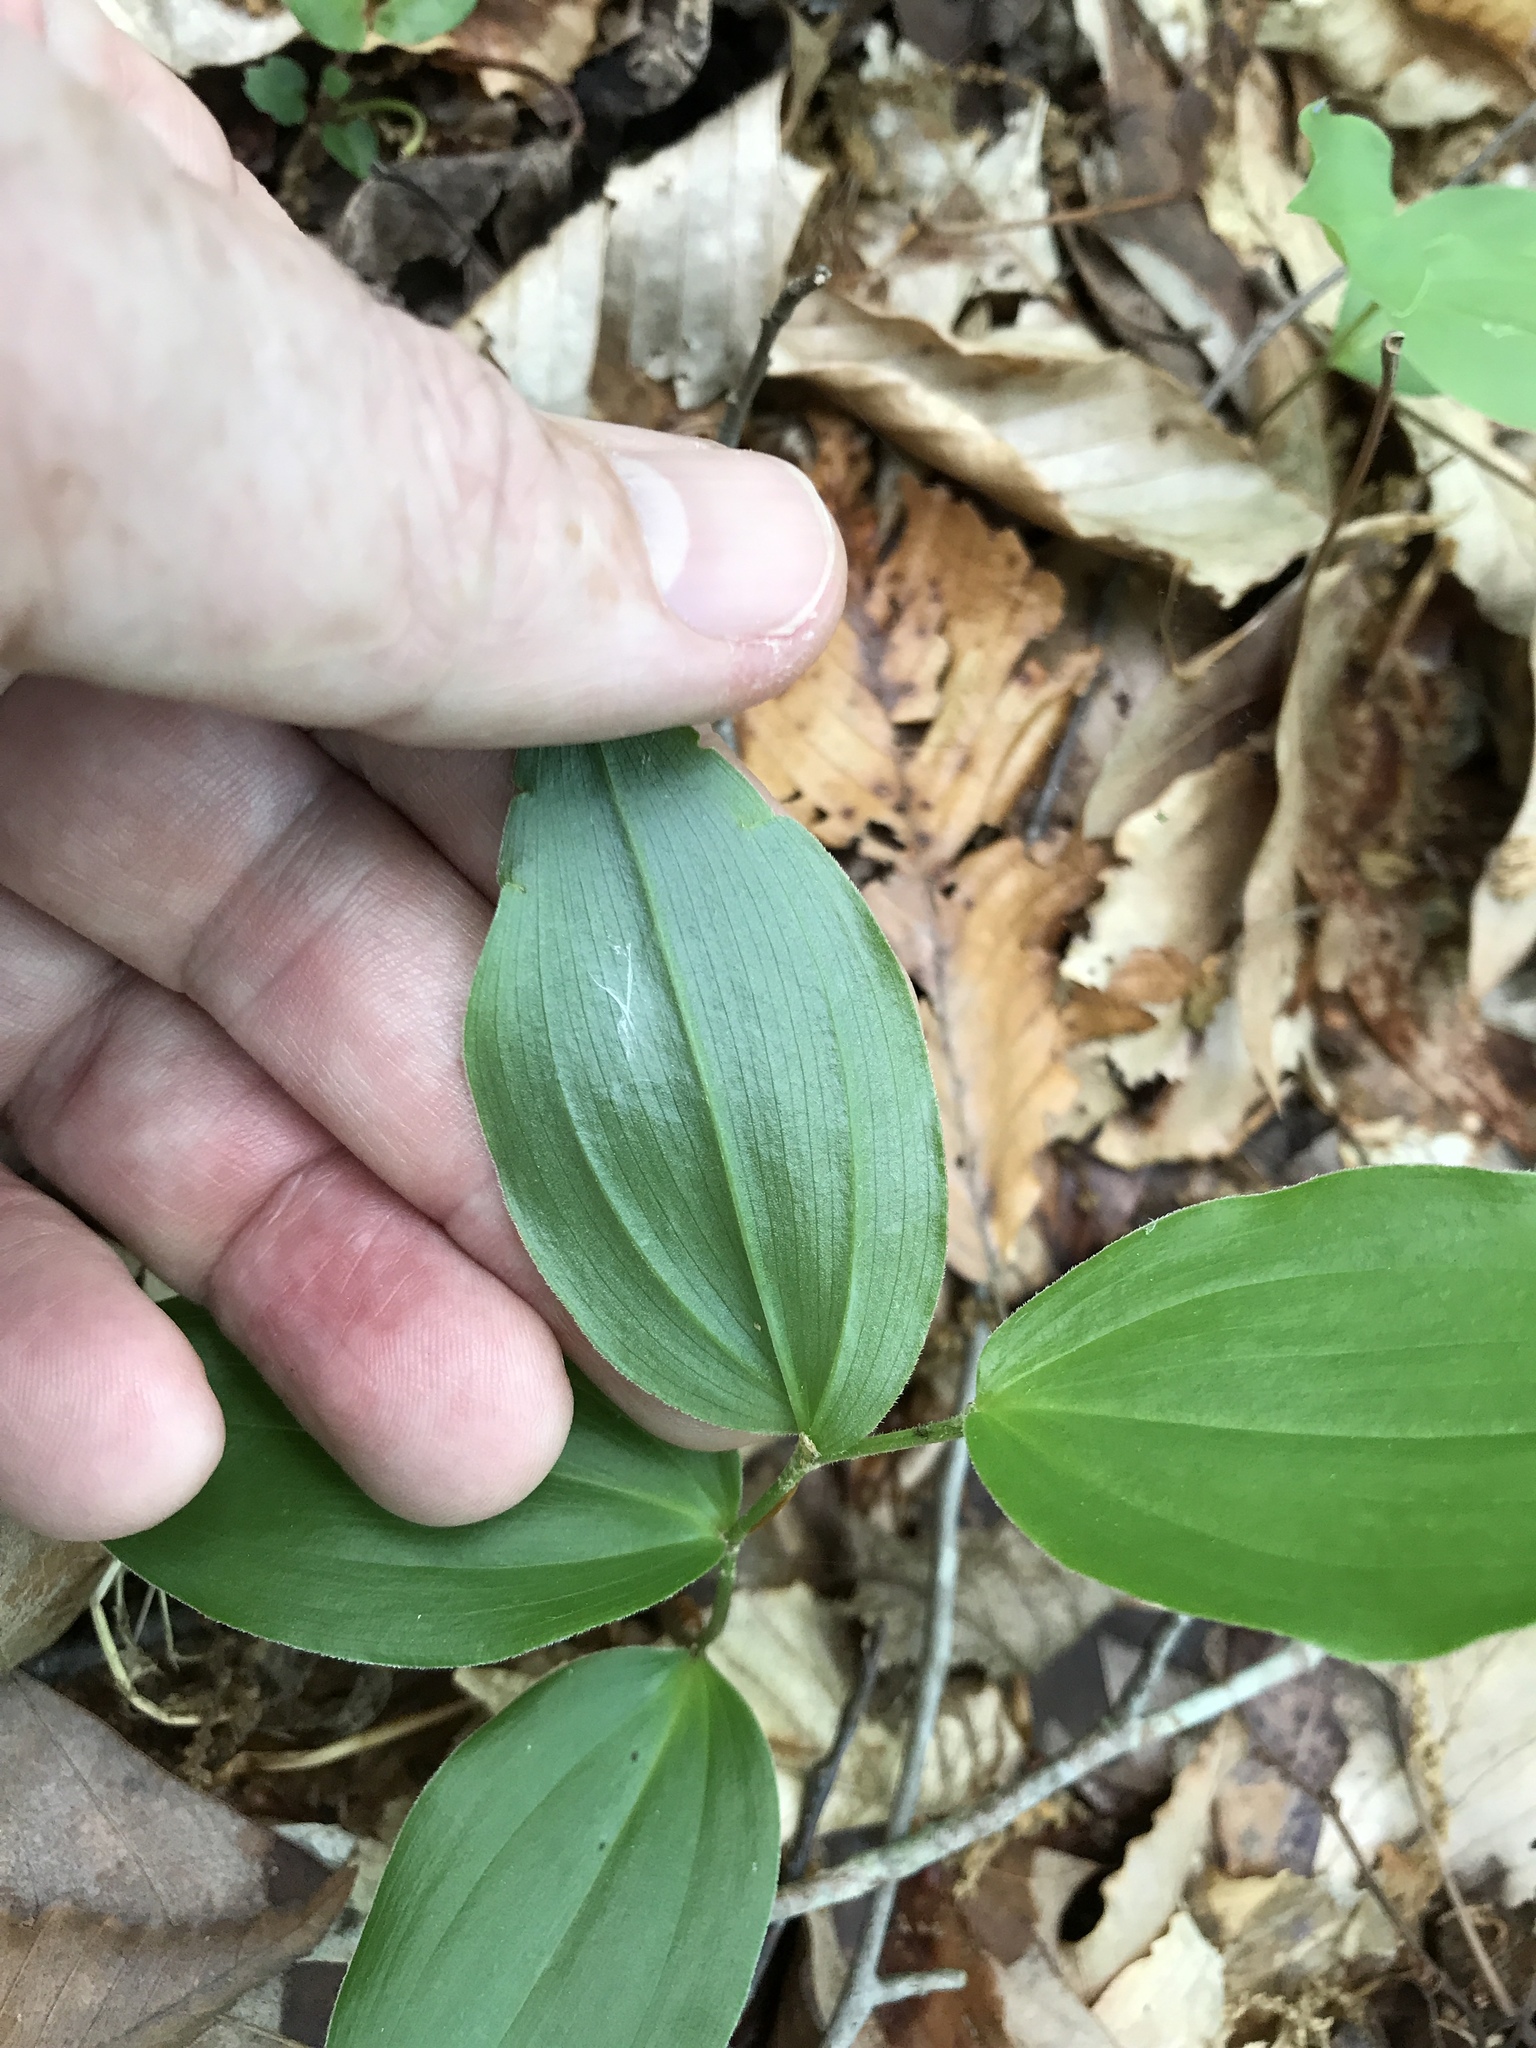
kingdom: Plantae
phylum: Tracheophyta
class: Liliopsida
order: Asparagales
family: Asparagaceae
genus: Maianthemum
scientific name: Maianthemum racemosum
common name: False spikenard
